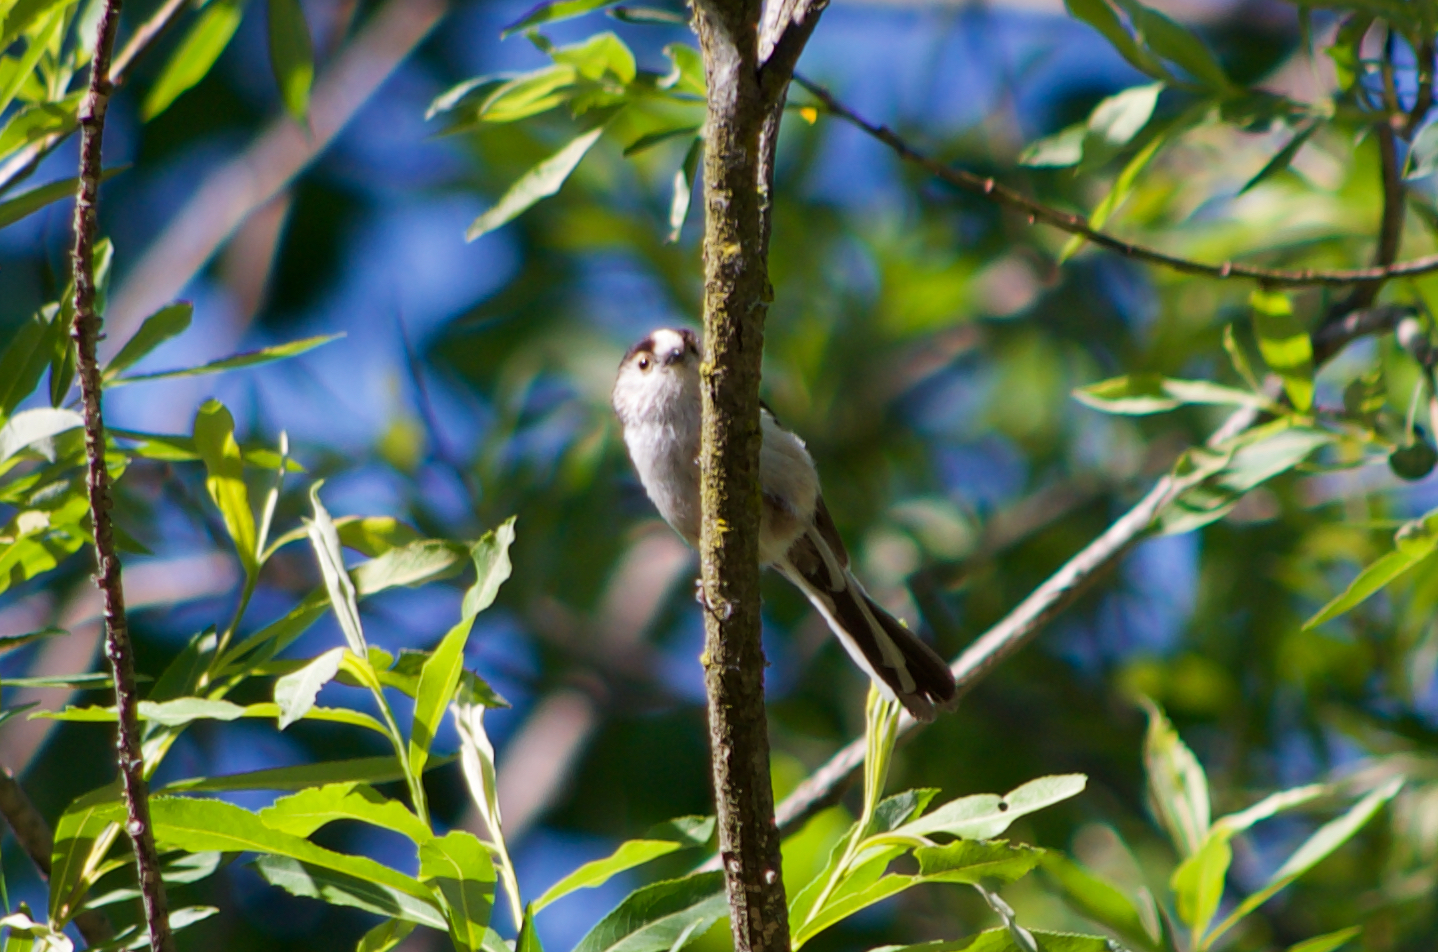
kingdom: Animalia
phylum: Chordata
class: Aves
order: Passeriformes
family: Aegithalidae
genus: Aegithalos
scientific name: Aegithalos caudatus
